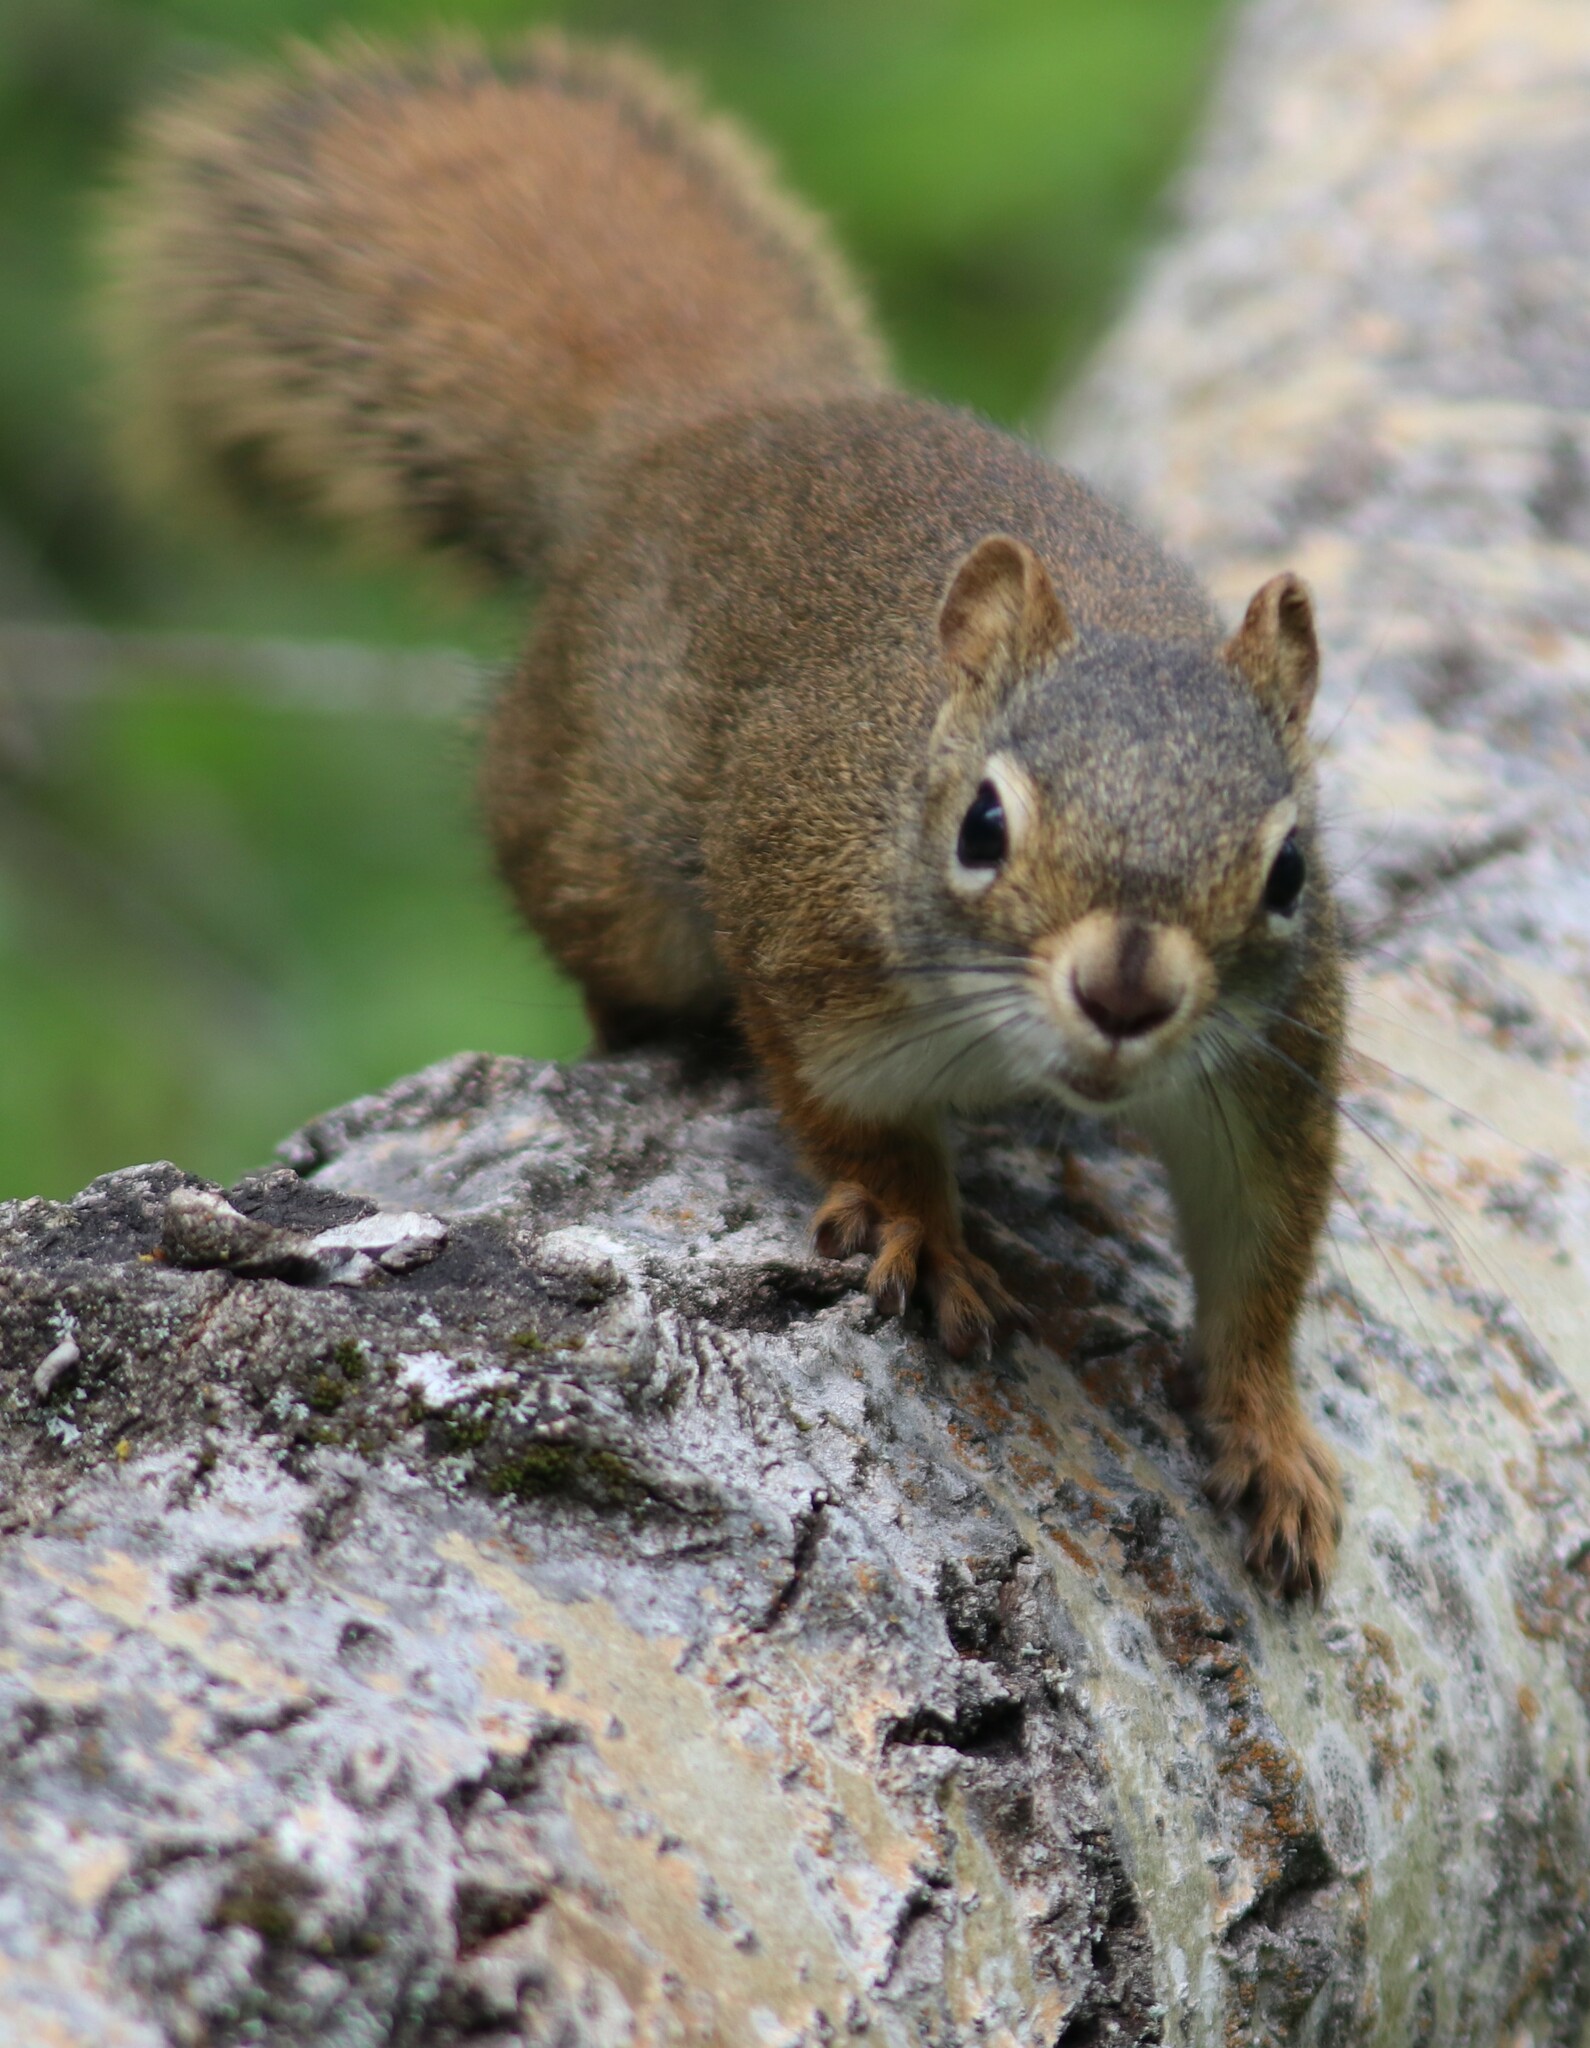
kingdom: Animalia
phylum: Chordata
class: Mammalia
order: Rodentia
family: Sciuridae
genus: Tamiasciurus
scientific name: Tamiasciurus hudsonicus
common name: Red squirrel
